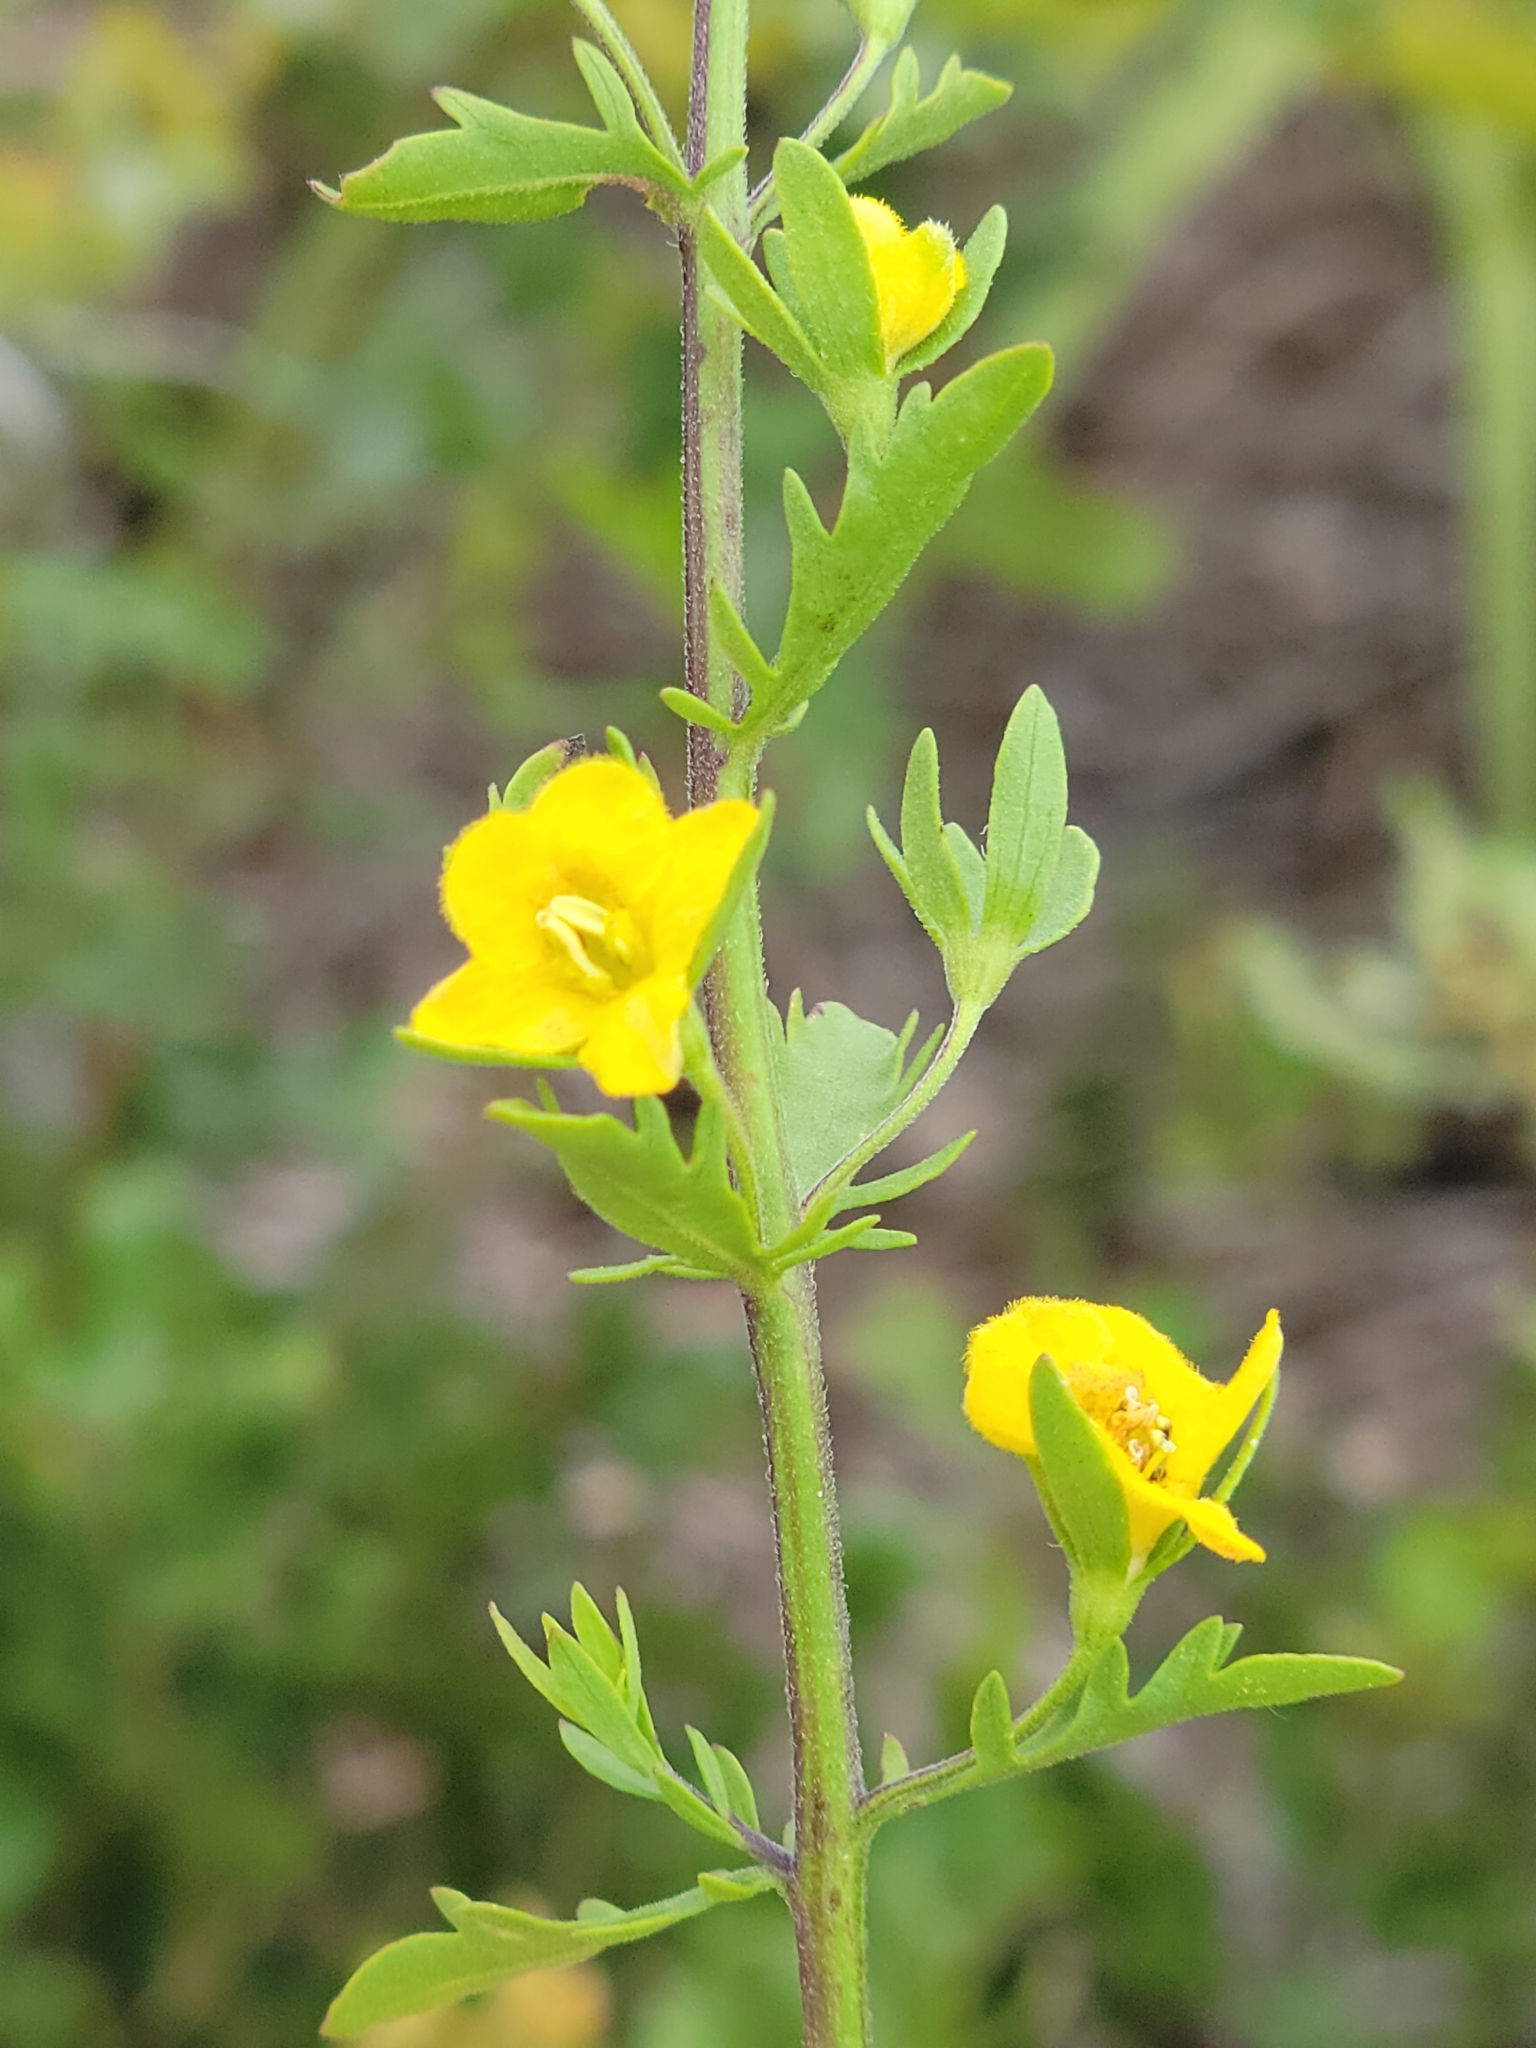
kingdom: Plantae
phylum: Tracheophyta
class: Magnoliopsida
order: Lamiales
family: Orobanchaceae
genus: Seymeria
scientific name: Seymeria pectinata
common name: Piedmont black-senna
